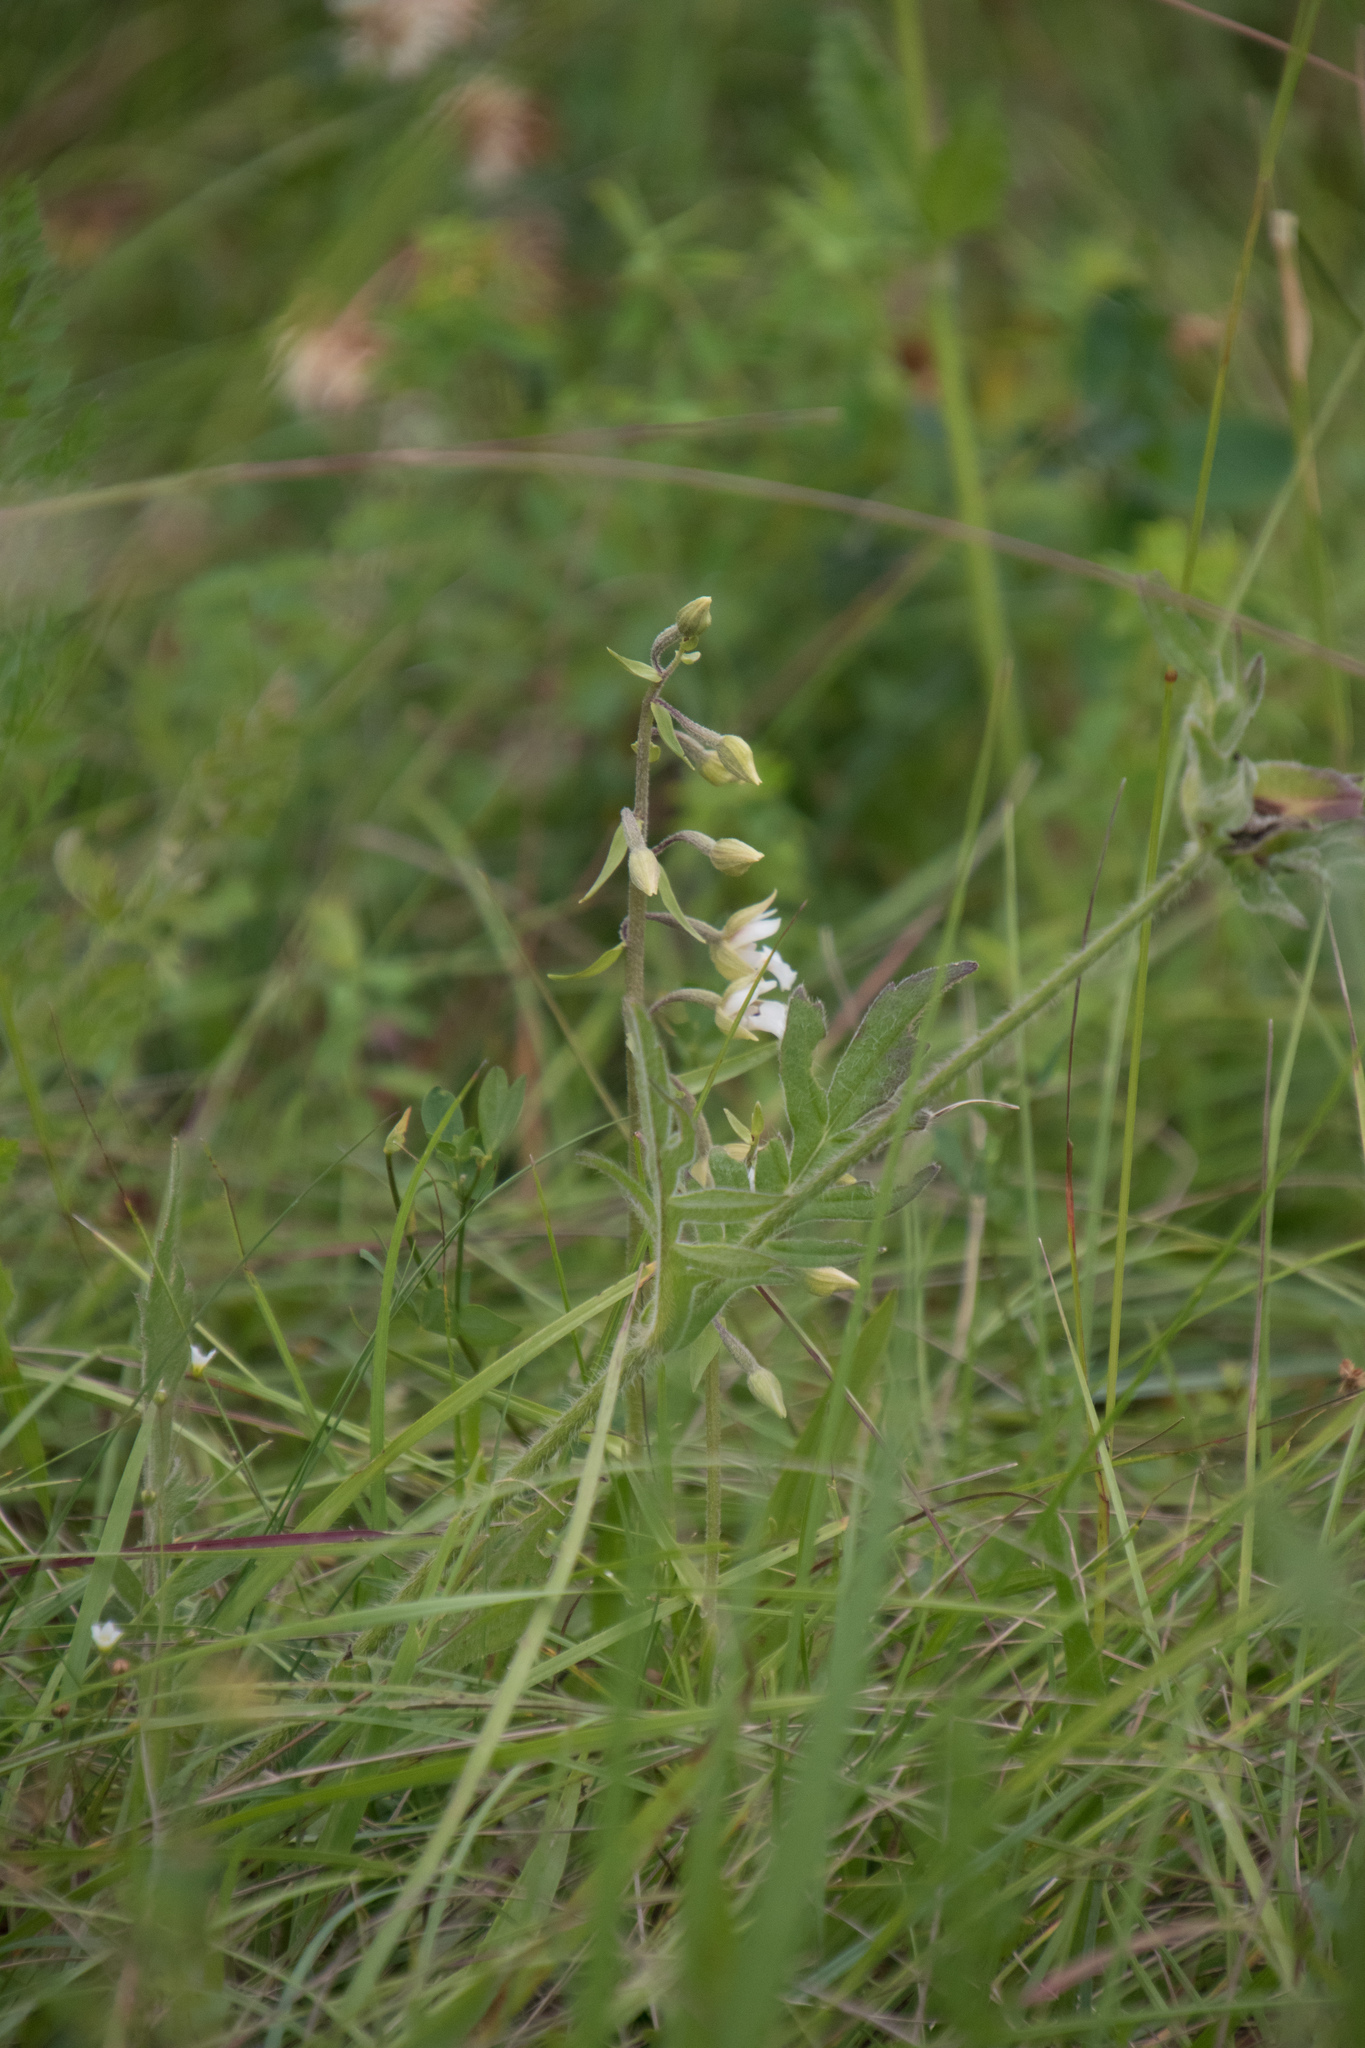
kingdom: Plantae
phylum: Tracheophyta
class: Liliopsida
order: Asparagales
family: Orchidaceae
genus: Epipactis
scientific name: Epipactis palustris
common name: Marsh helleborine
